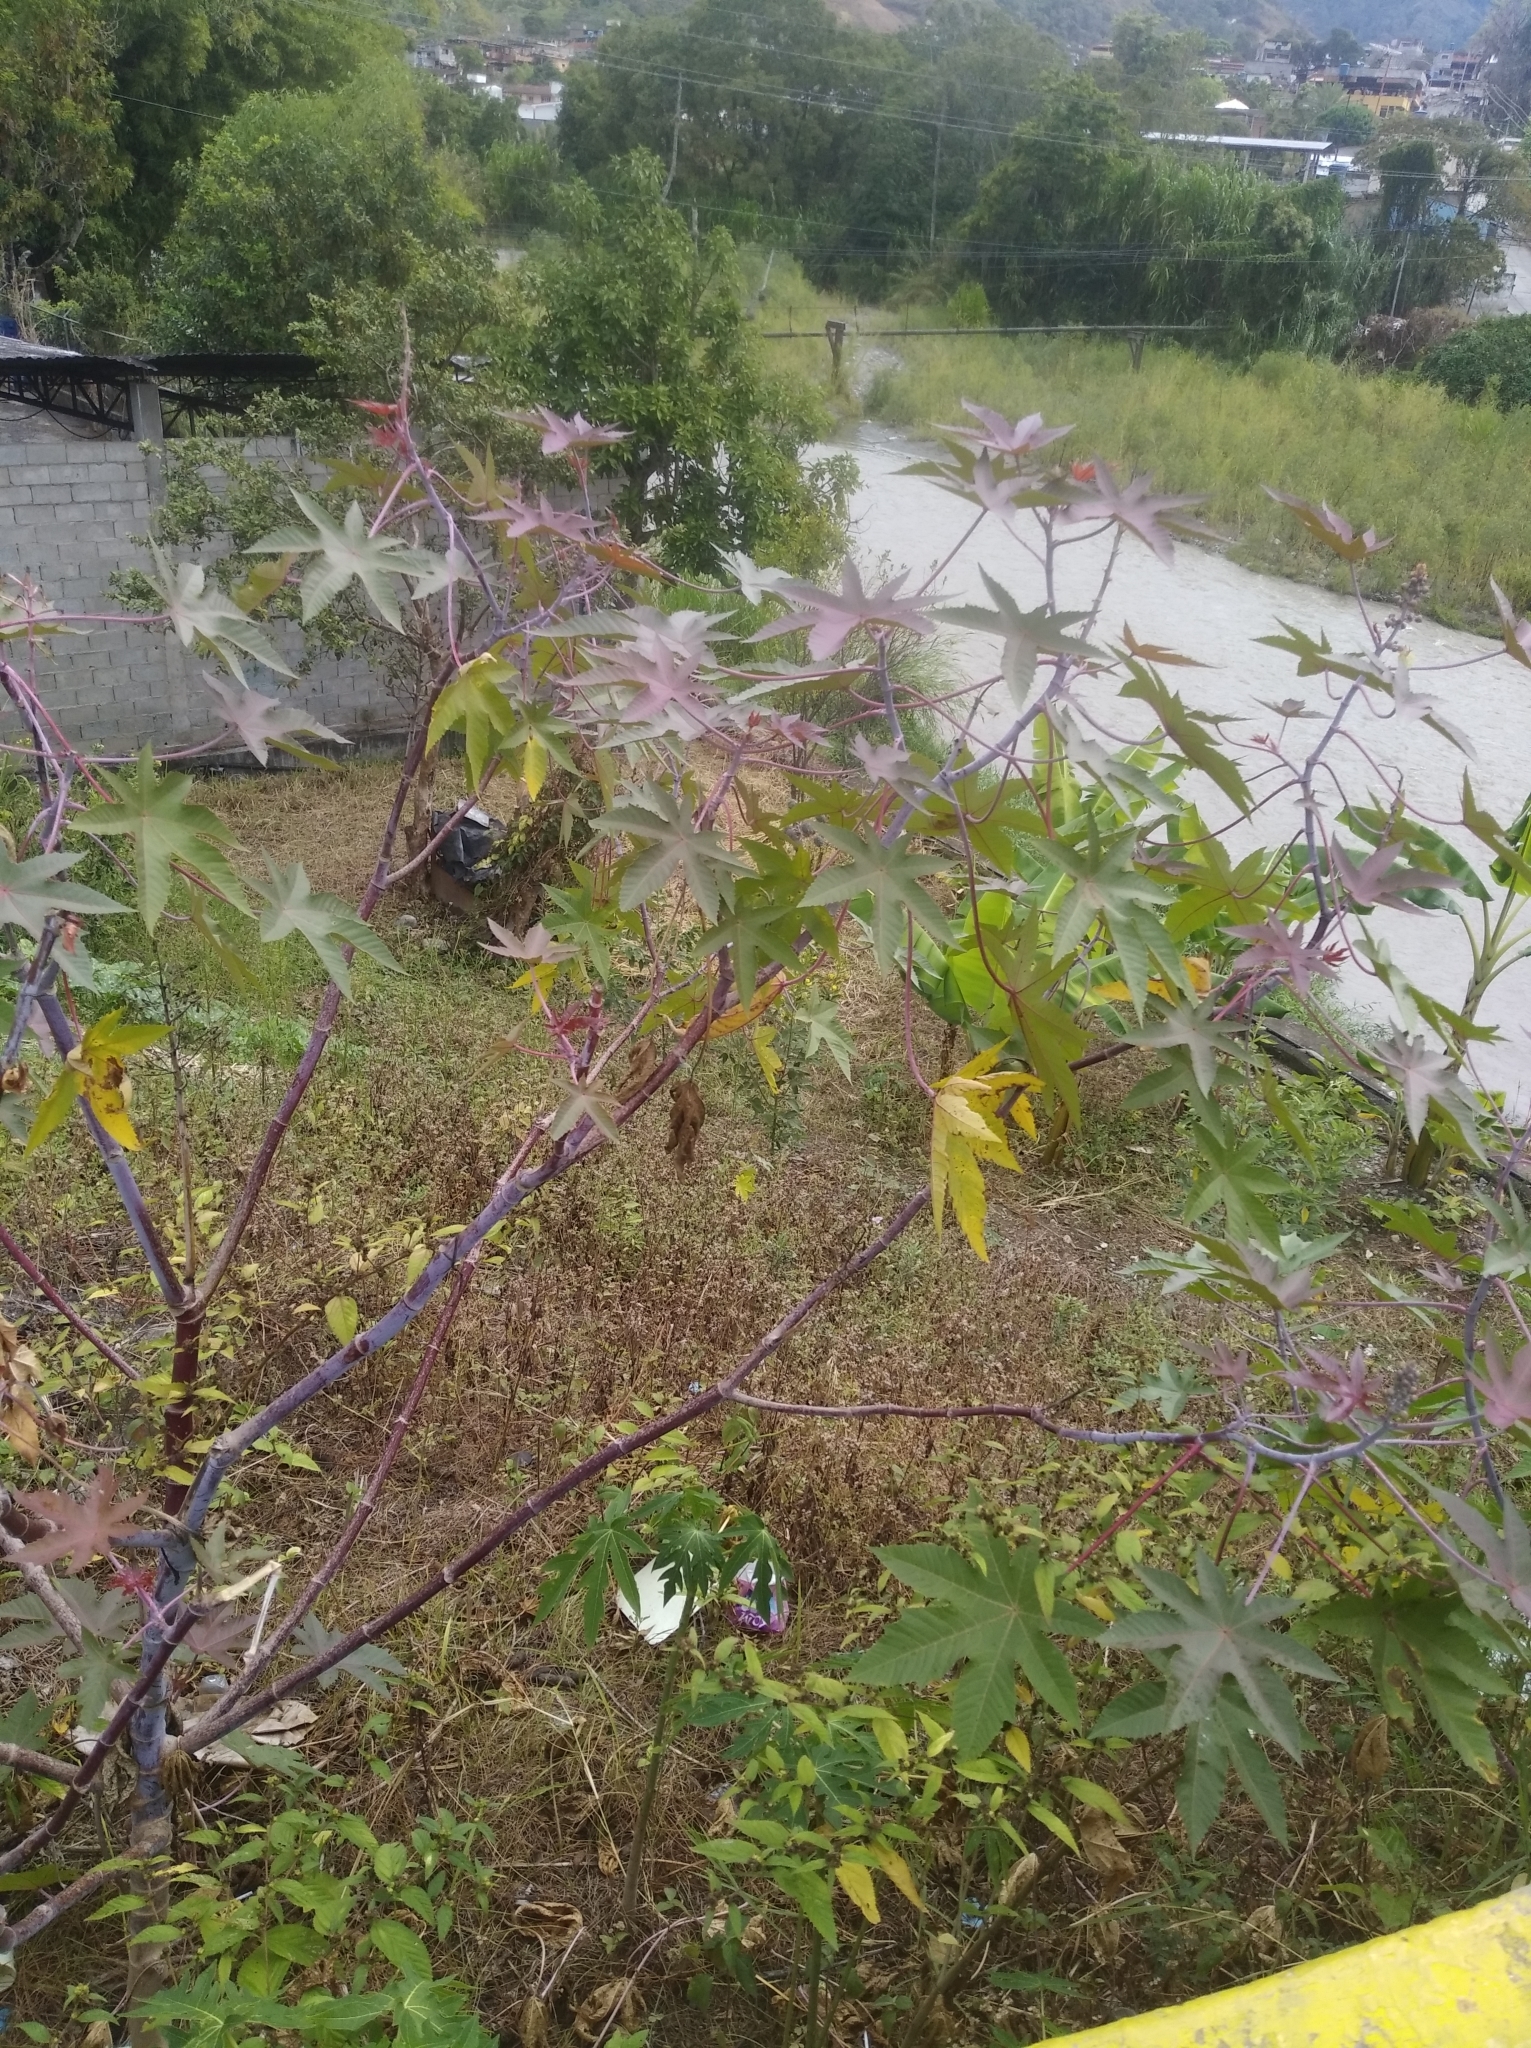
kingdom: Plantae
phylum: Tracheophyta
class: Magnoliopsida
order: Malpighiales
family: Euphorbiaceae
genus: Ricinus
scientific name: Ricinus communis
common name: Castor-oil-plant
